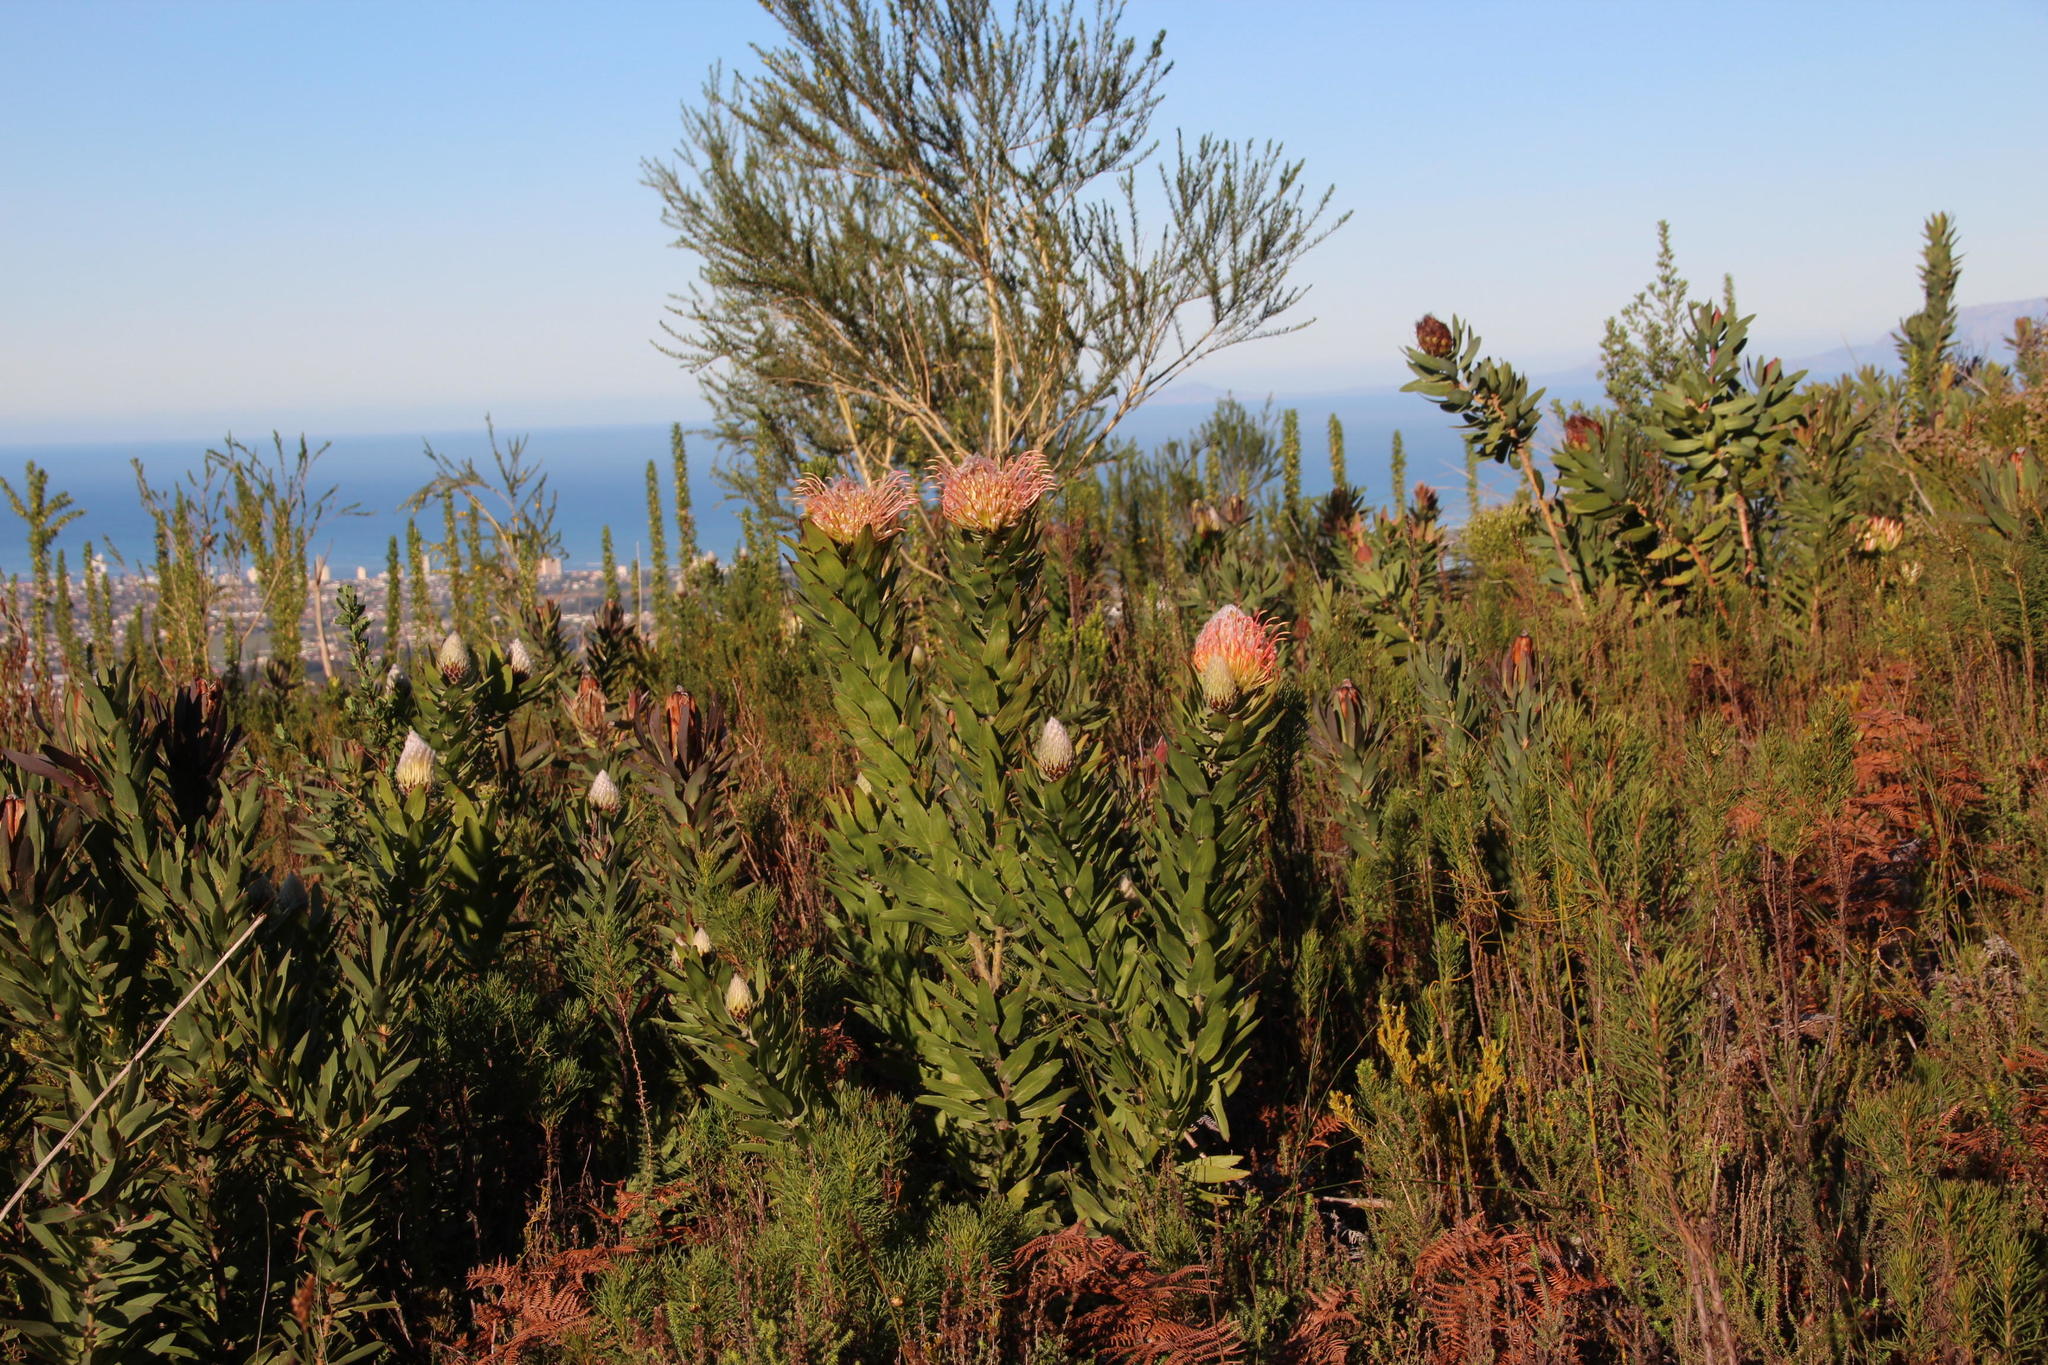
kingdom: Plantae
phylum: Tracheophyta
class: Magnoliopsida
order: Proteales
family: Proteaceae
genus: Leucospermum
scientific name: Leucospermum gueinzii
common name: Kloof fountain pincushion
